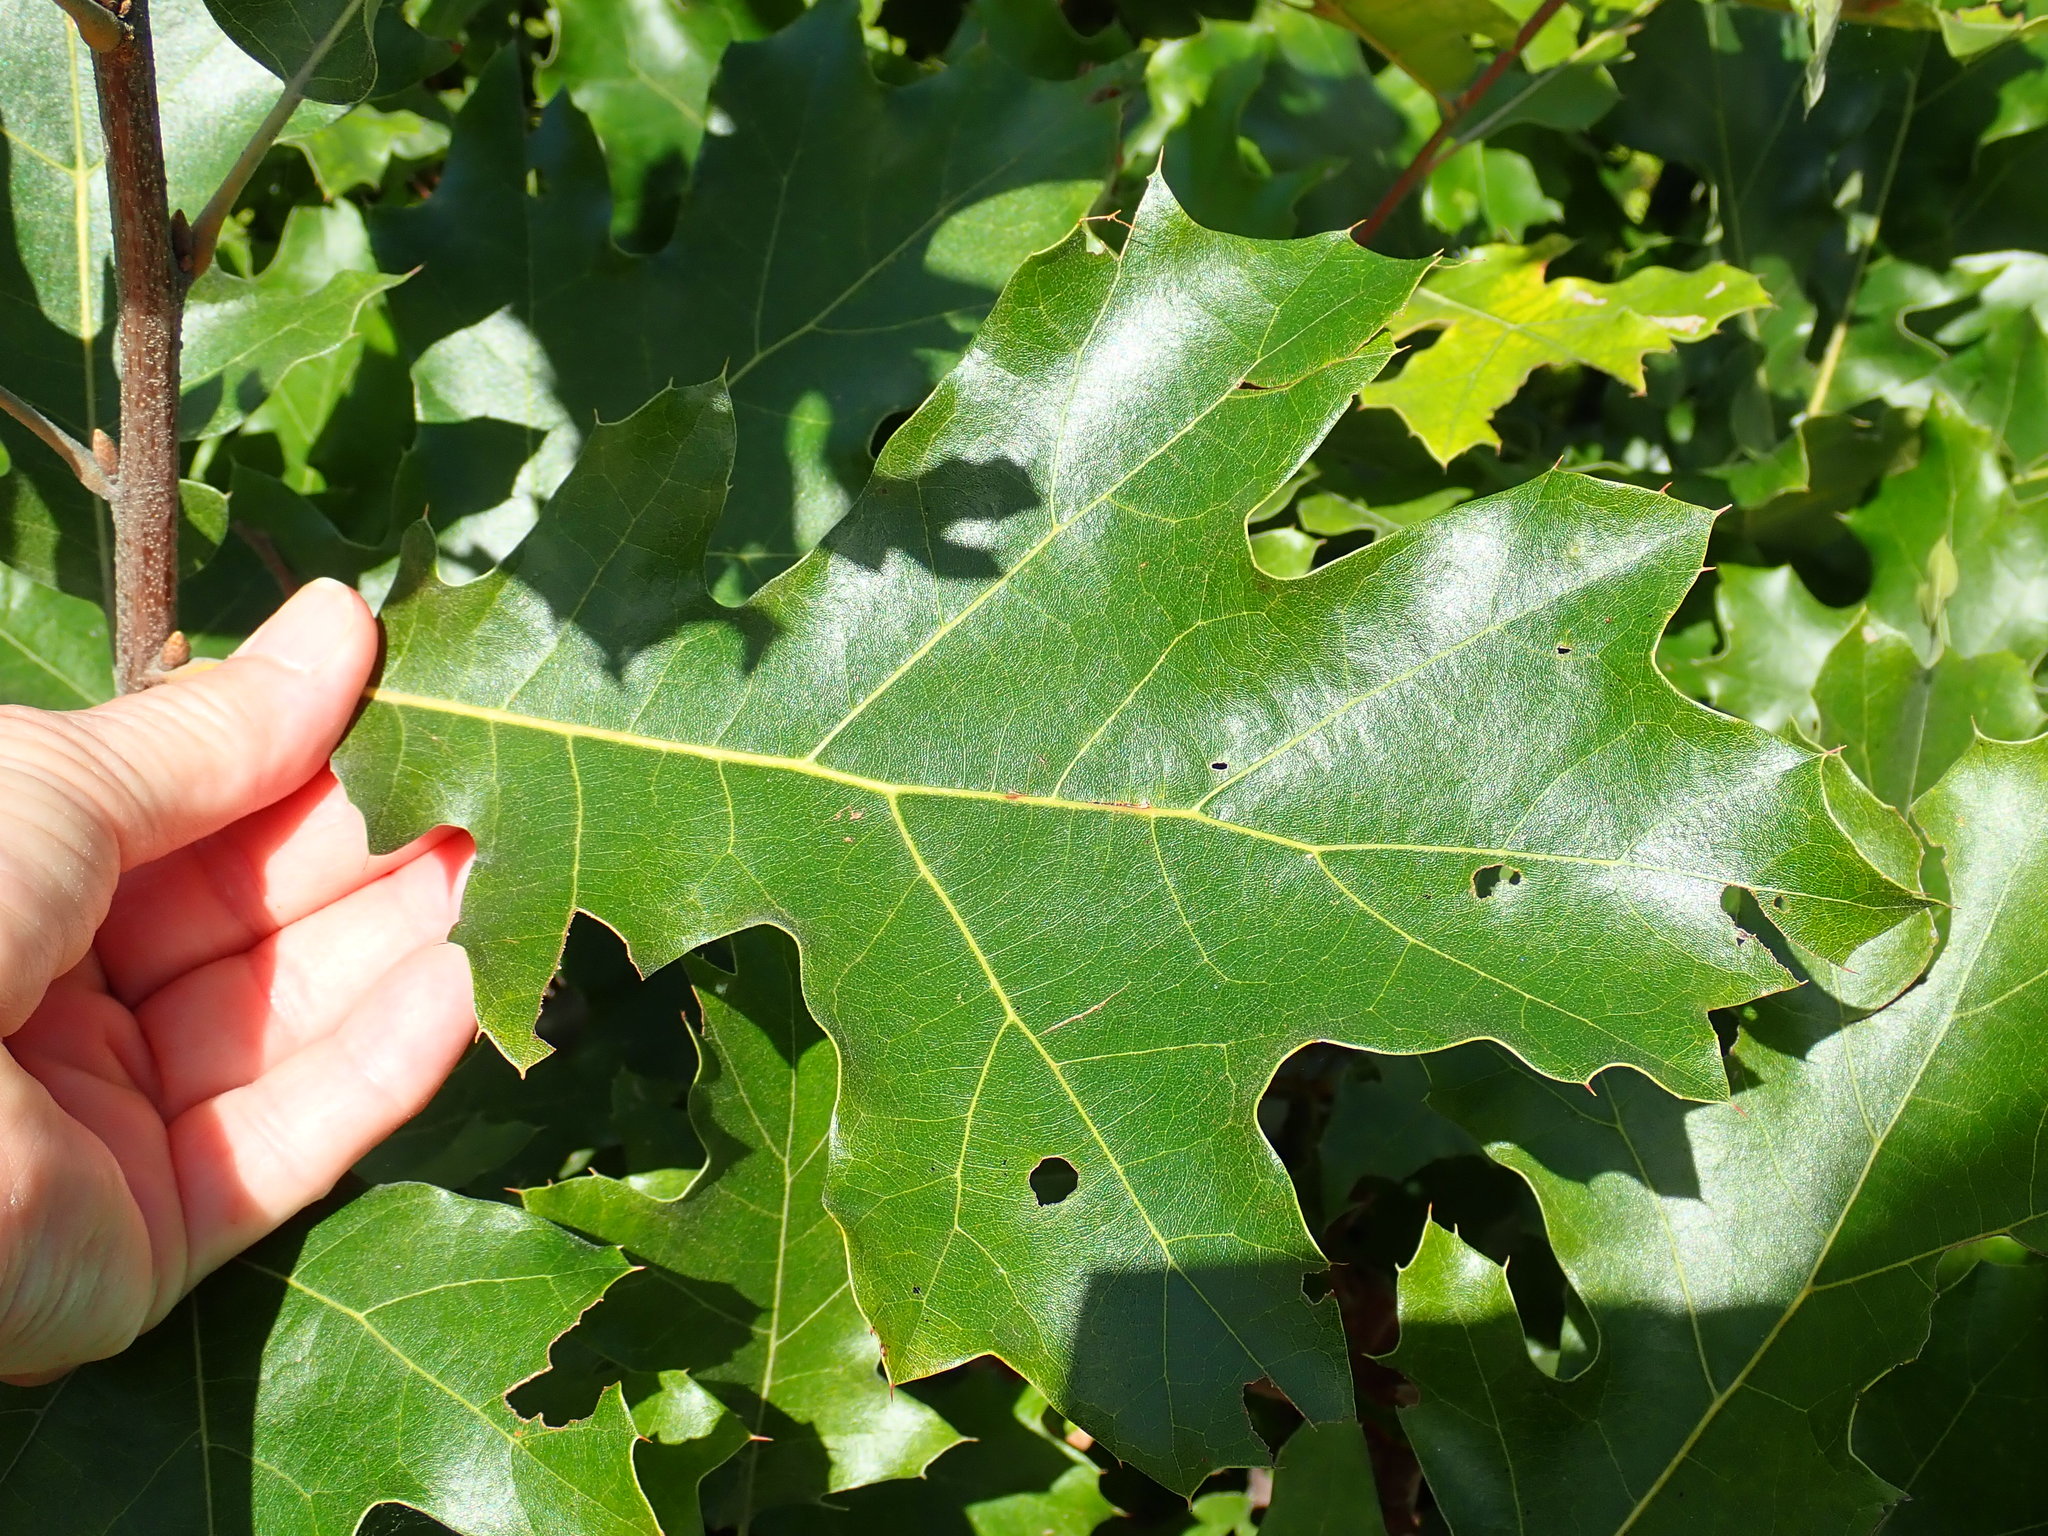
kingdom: Plantae
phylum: Tracheophyta
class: Magnoliopsida
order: Fagales
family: Fagaceae
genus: Quercus
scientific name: Quercus velutina
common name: Black oak
